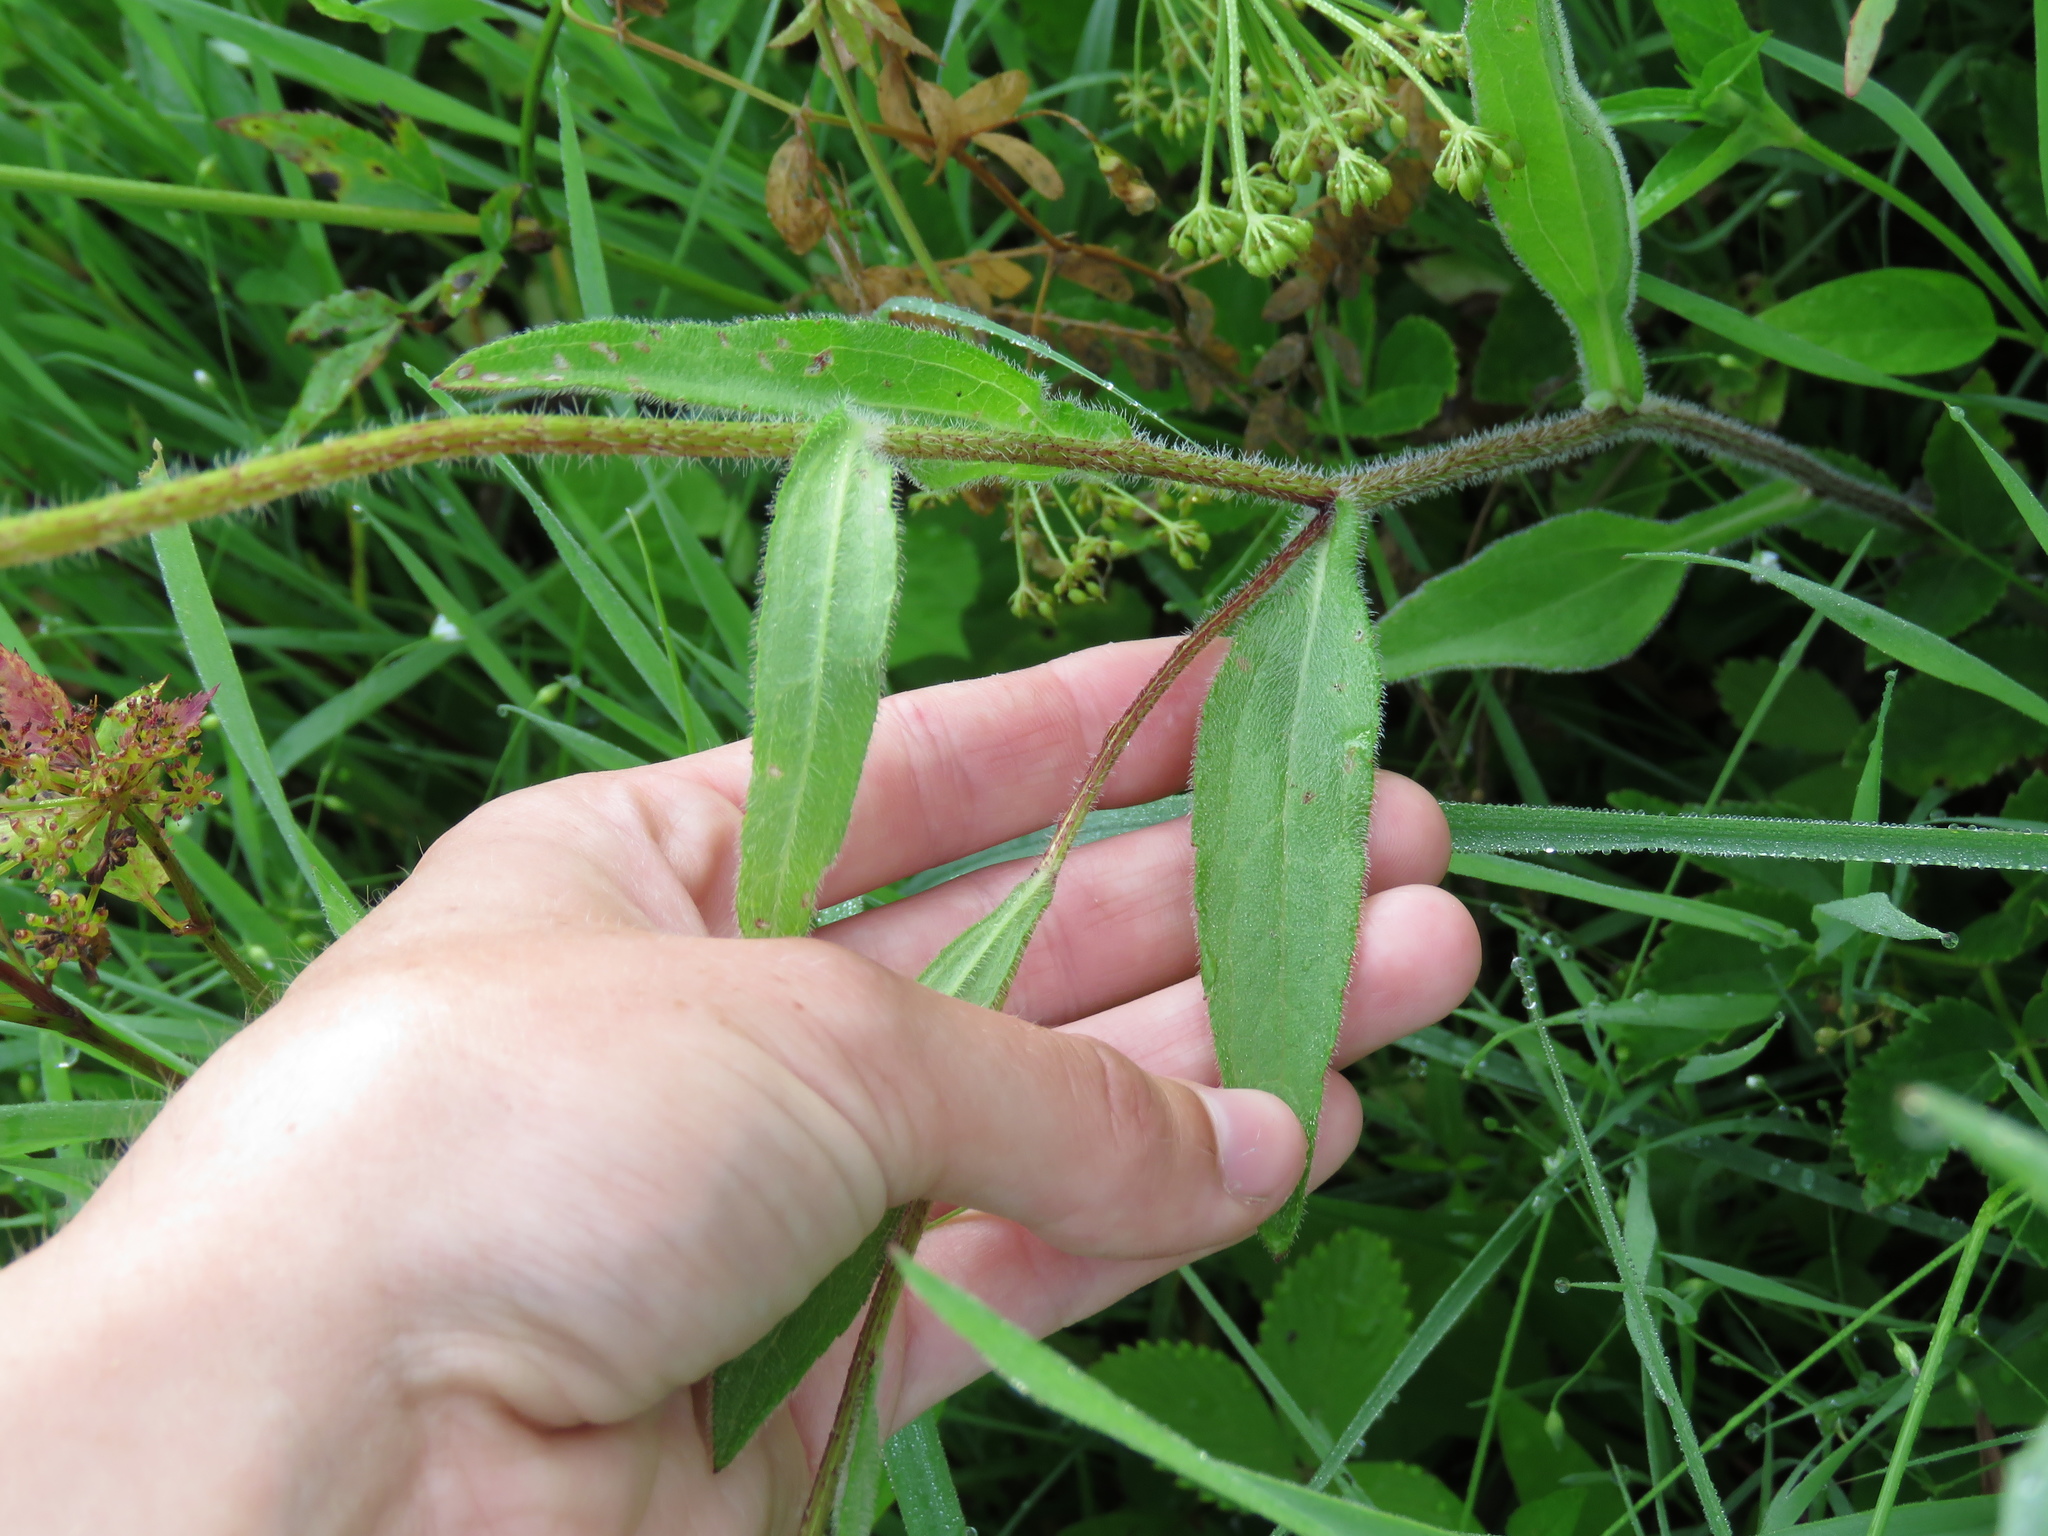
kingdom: Plantae
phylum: Tracheophyta
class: Magnoliopsida
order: Asterales
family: Asteraceae
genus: Rudbeckia
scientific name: Rudbeckia hirta
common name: Black-eyed-susan
